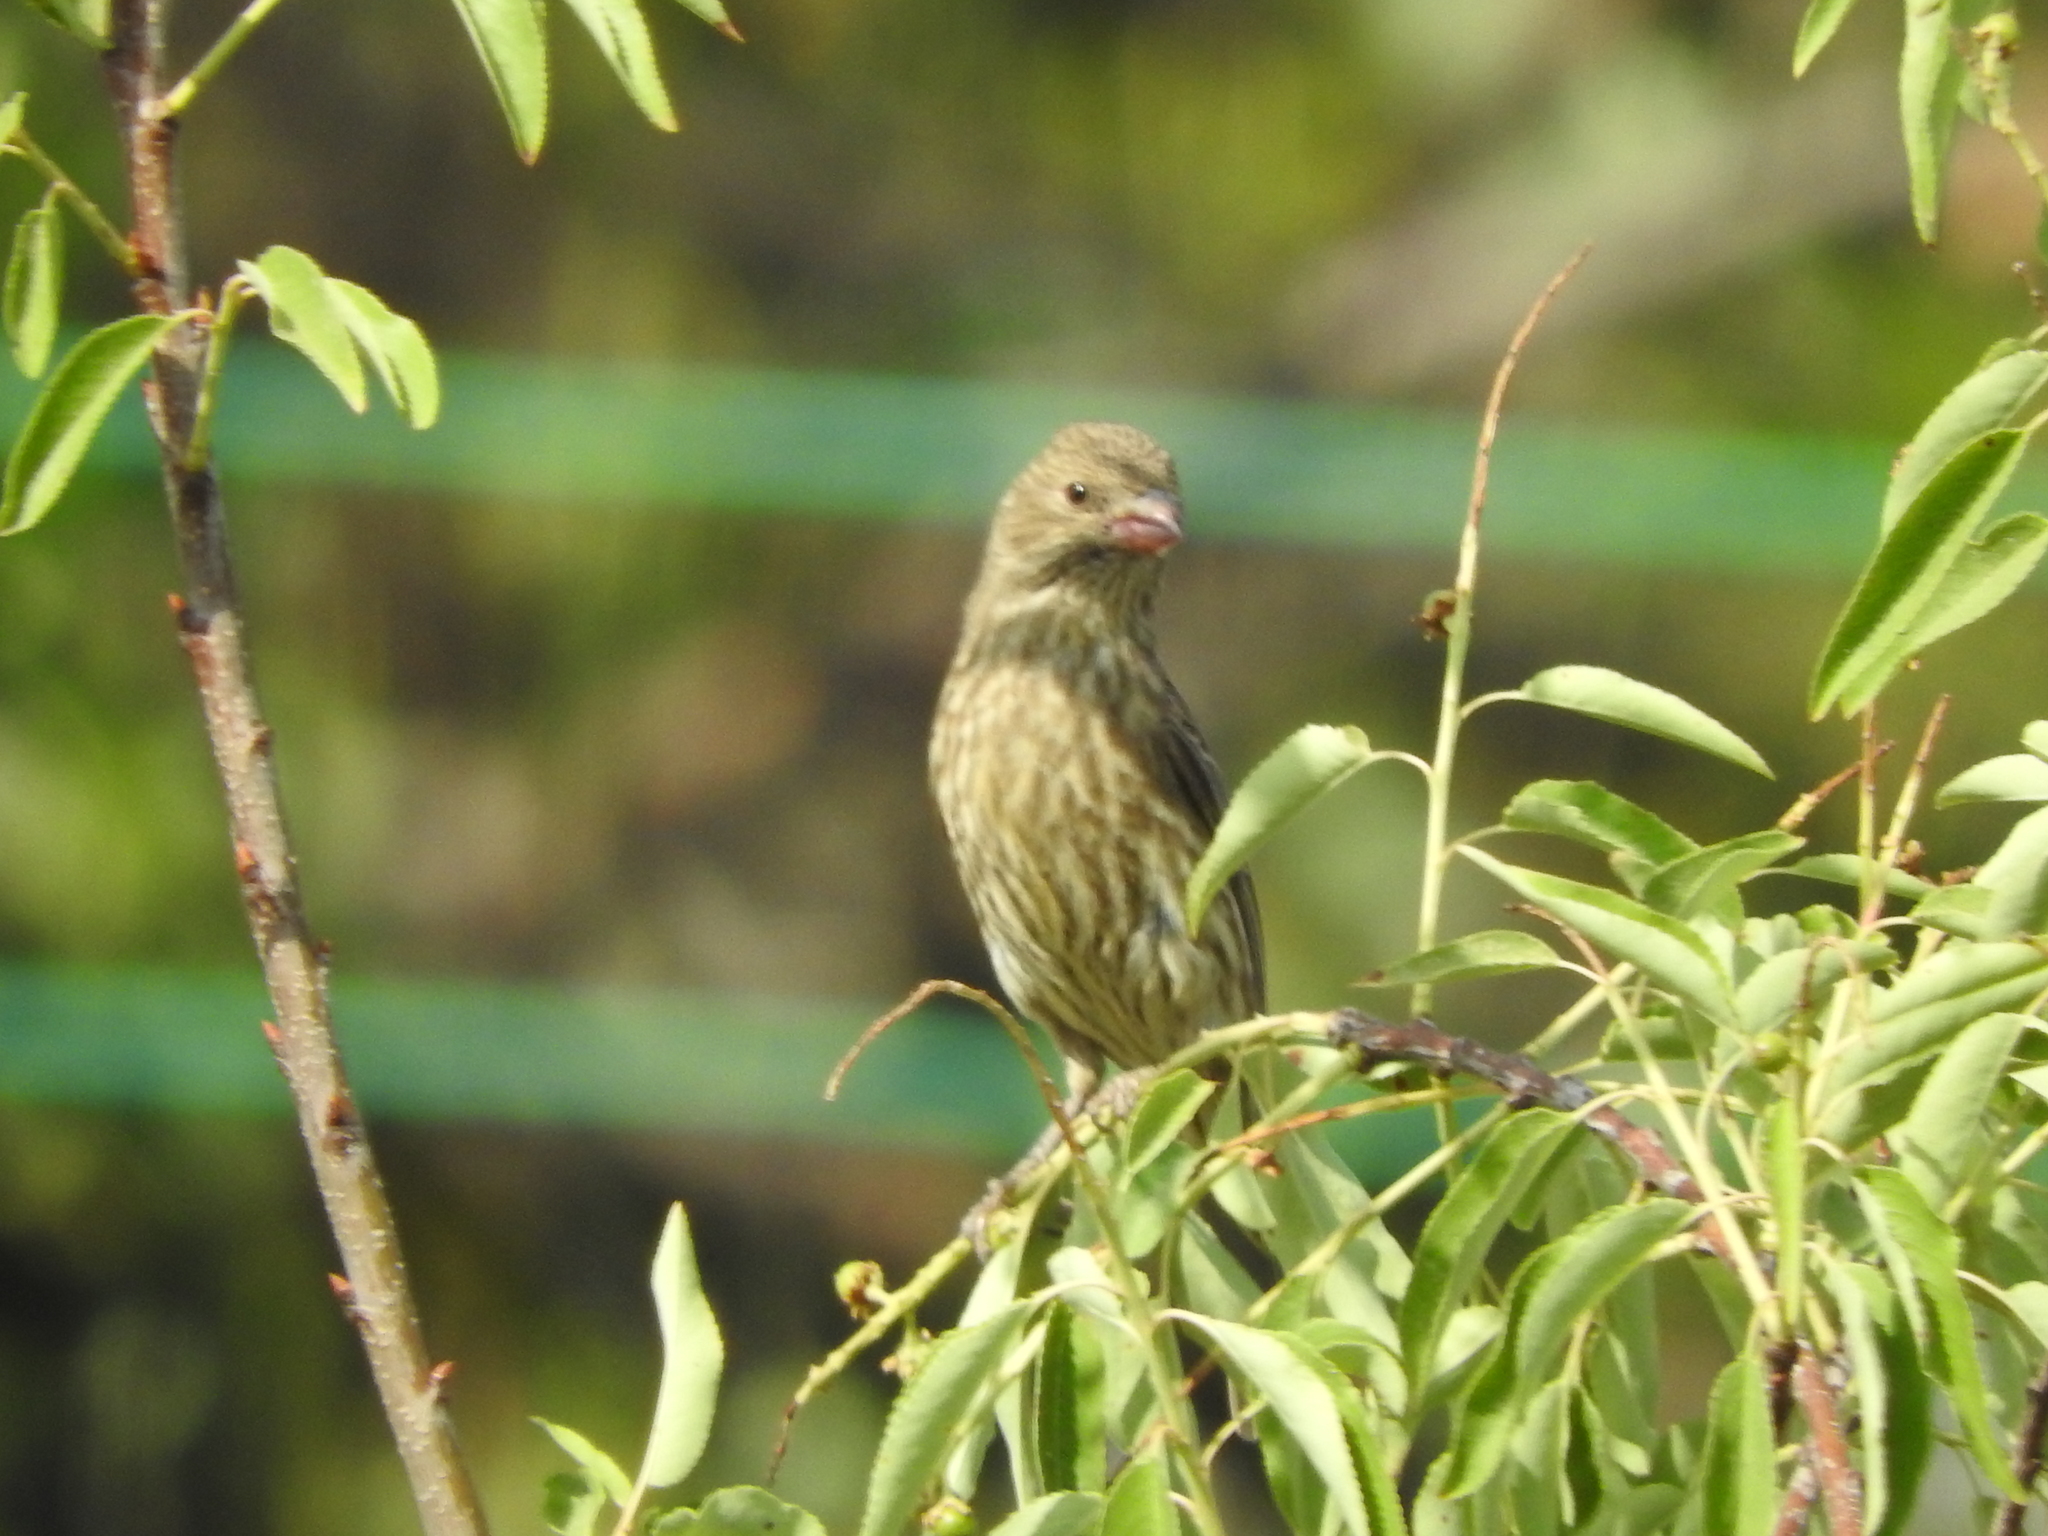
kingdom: Animalia
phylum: Chordata
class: Aves
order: Passeriformes
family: Fringillidae
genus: Haemorhous
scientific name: Haemorhous mexicanus
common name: House finch
